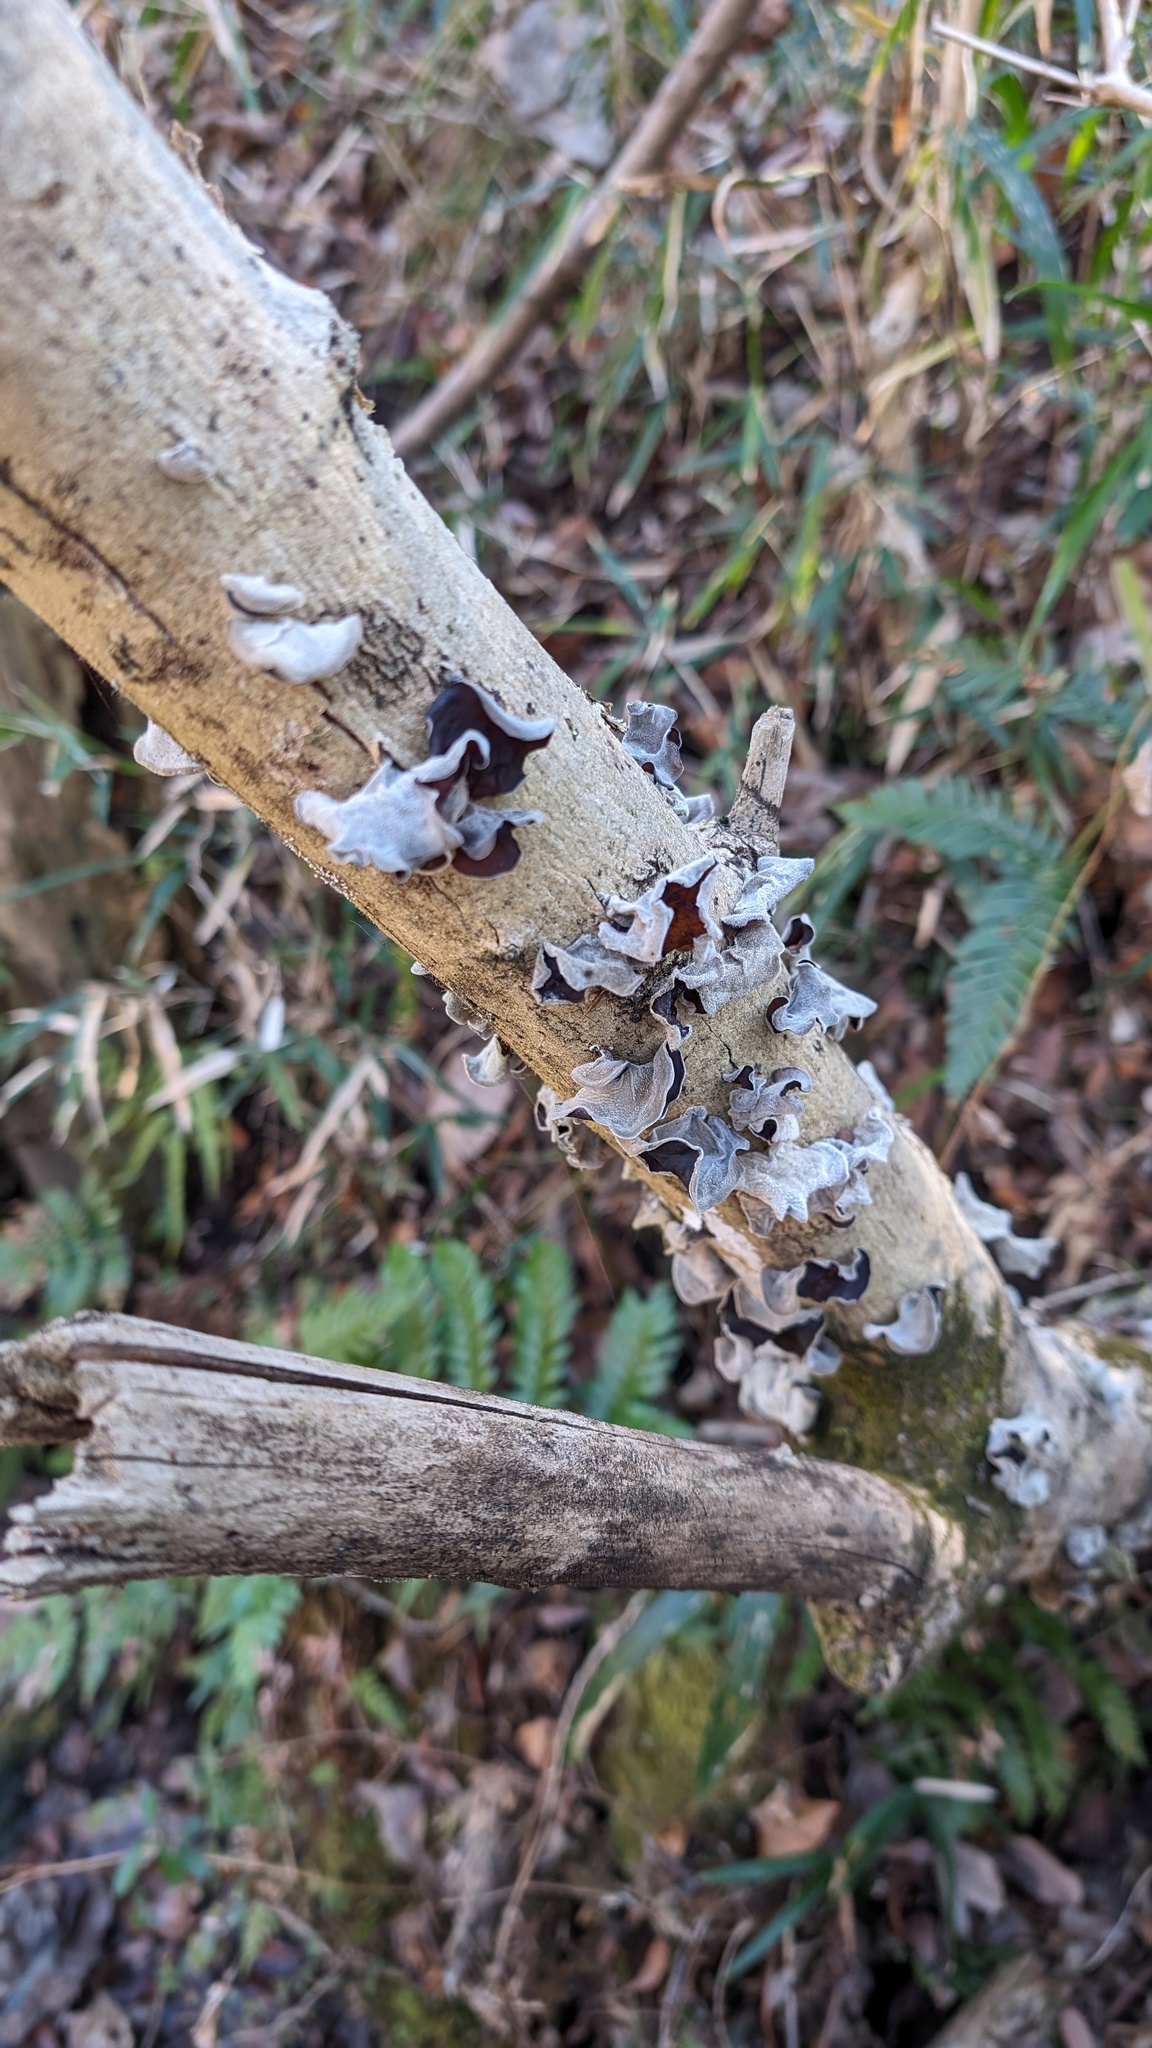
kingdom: Fungi
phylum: Basidiomycota
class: Agaricomycetes
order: Auriculariales
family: Auriculariaceae
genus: Auricularia
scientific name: Auricularia nigricans
